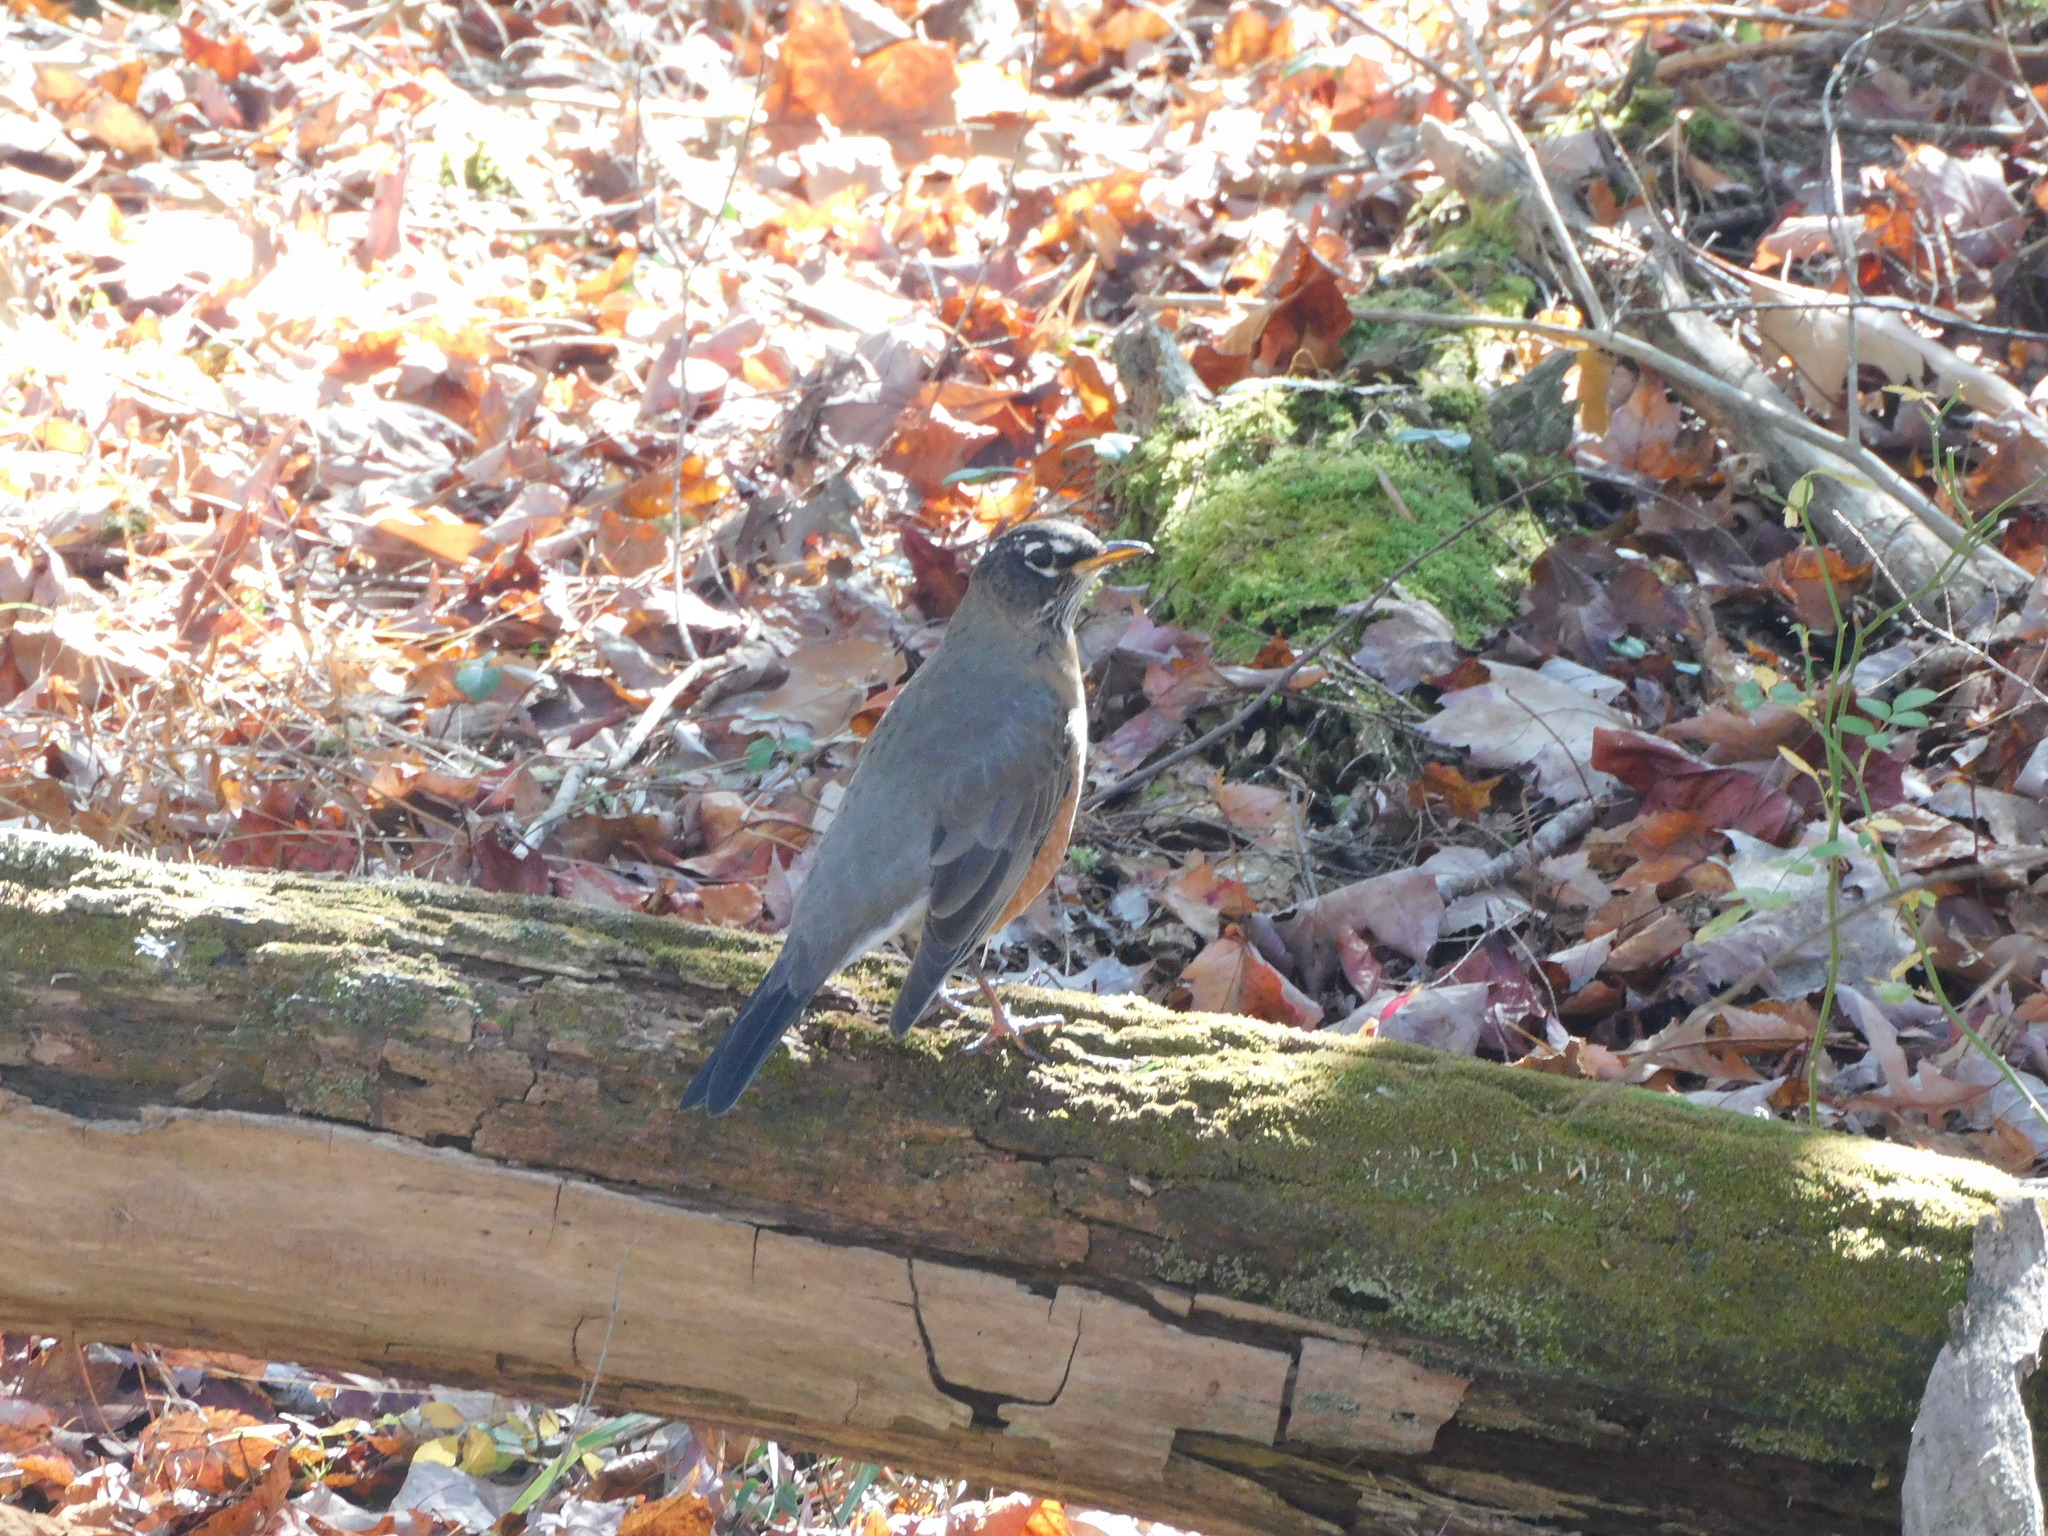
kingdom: Animalia
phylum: Chordata
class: Aves
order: Passeriformes
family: Turdidae
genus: Turdus
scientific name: Turdus migratorius
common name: American robin
